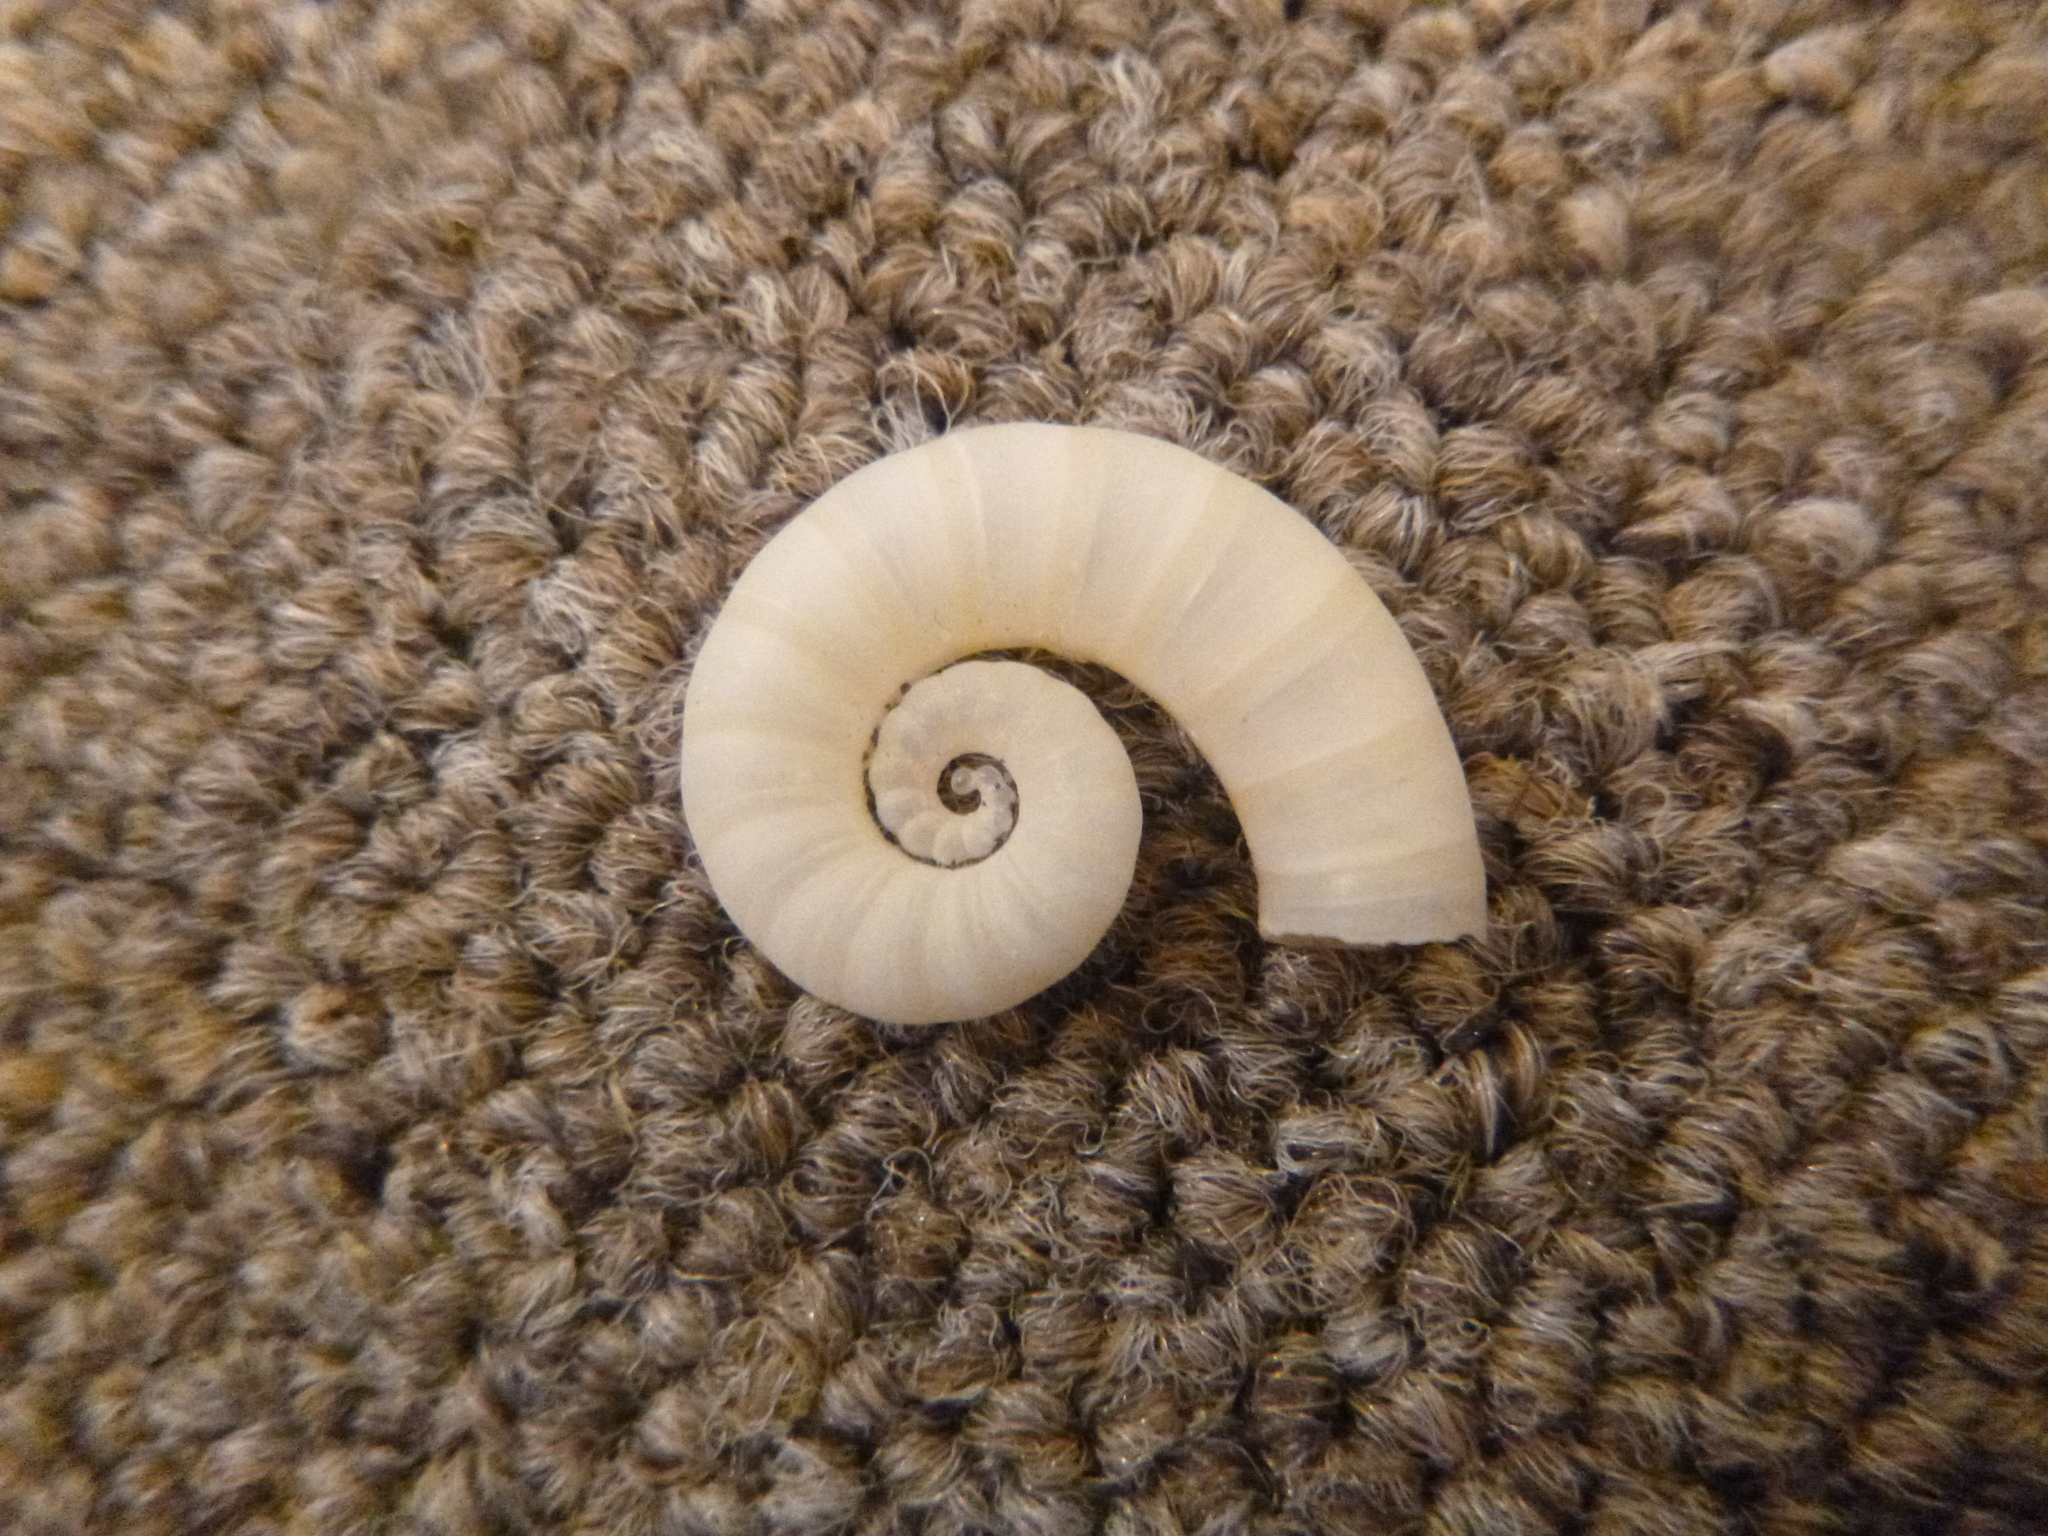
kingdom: Animalia
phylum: Mollusca
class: Cephalopoda
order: Spirulida
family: Spirulidae
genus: Spirula
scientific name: Spirula spirula
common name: Ram's horn squid
